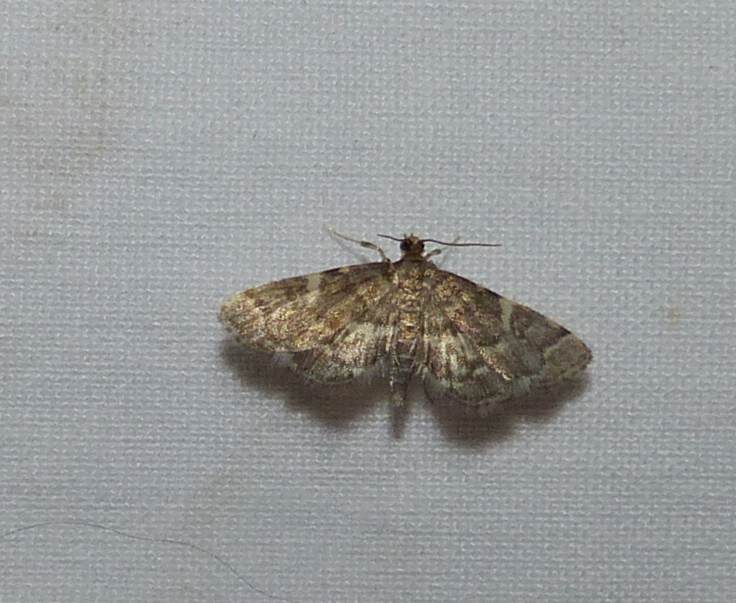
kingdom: Animalia
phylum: Arthropoda
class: Insecta
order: Lepidoptera
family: Crambidae
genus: Anageshna
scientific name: Anageshna primordialis
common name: Yellow-spotted webworm moth
